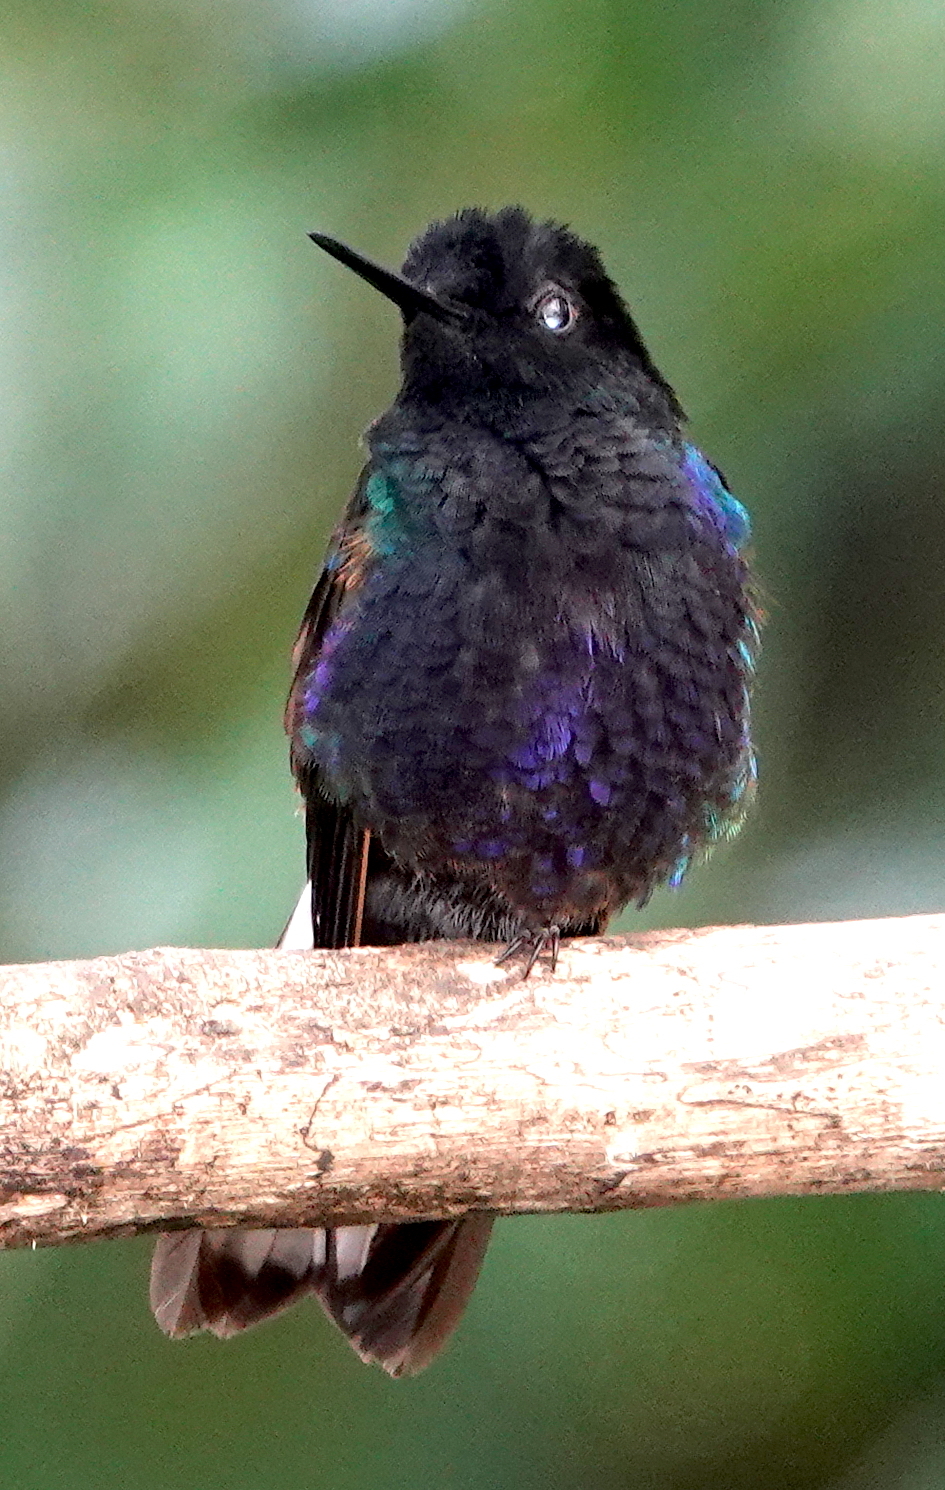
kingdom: Animalia
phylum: Chordata
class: Aves
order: Apodiformes
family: Trochilidae
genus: Boissonneaua
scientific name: Boissonneaua jardini
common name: Velvet-purple coronet
